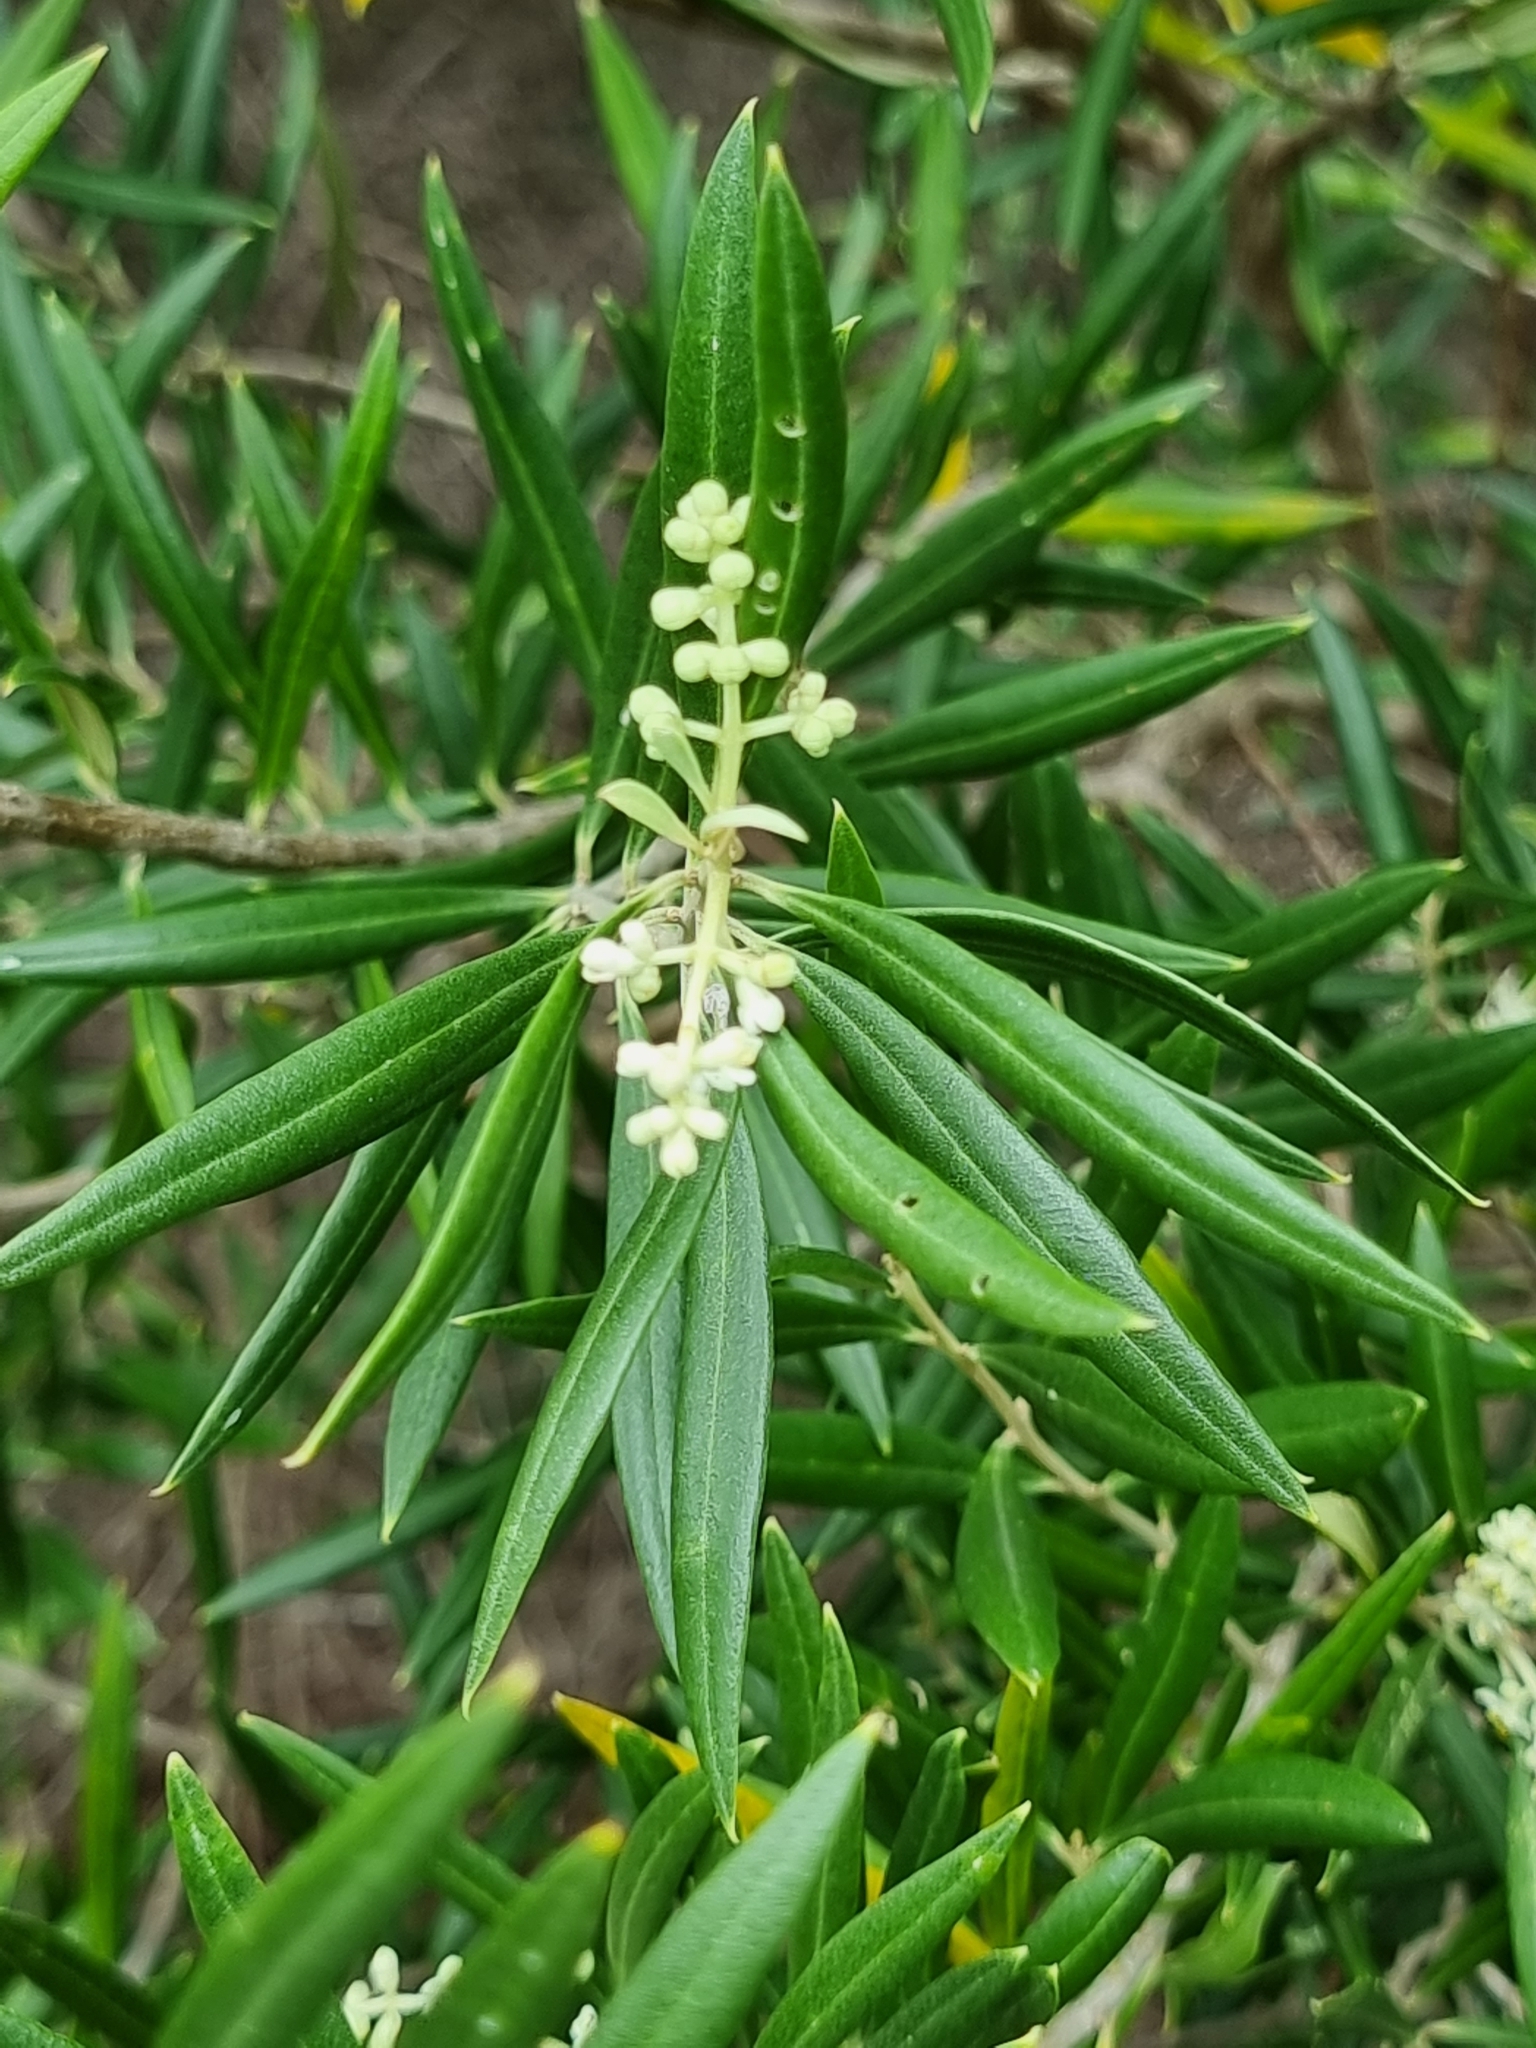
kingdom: Plantae
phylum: Tracheophyta
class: Magnoliopsida
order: Lamiales
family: Oleaceae
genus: Olea
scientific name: Olea europaea
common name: Olive
